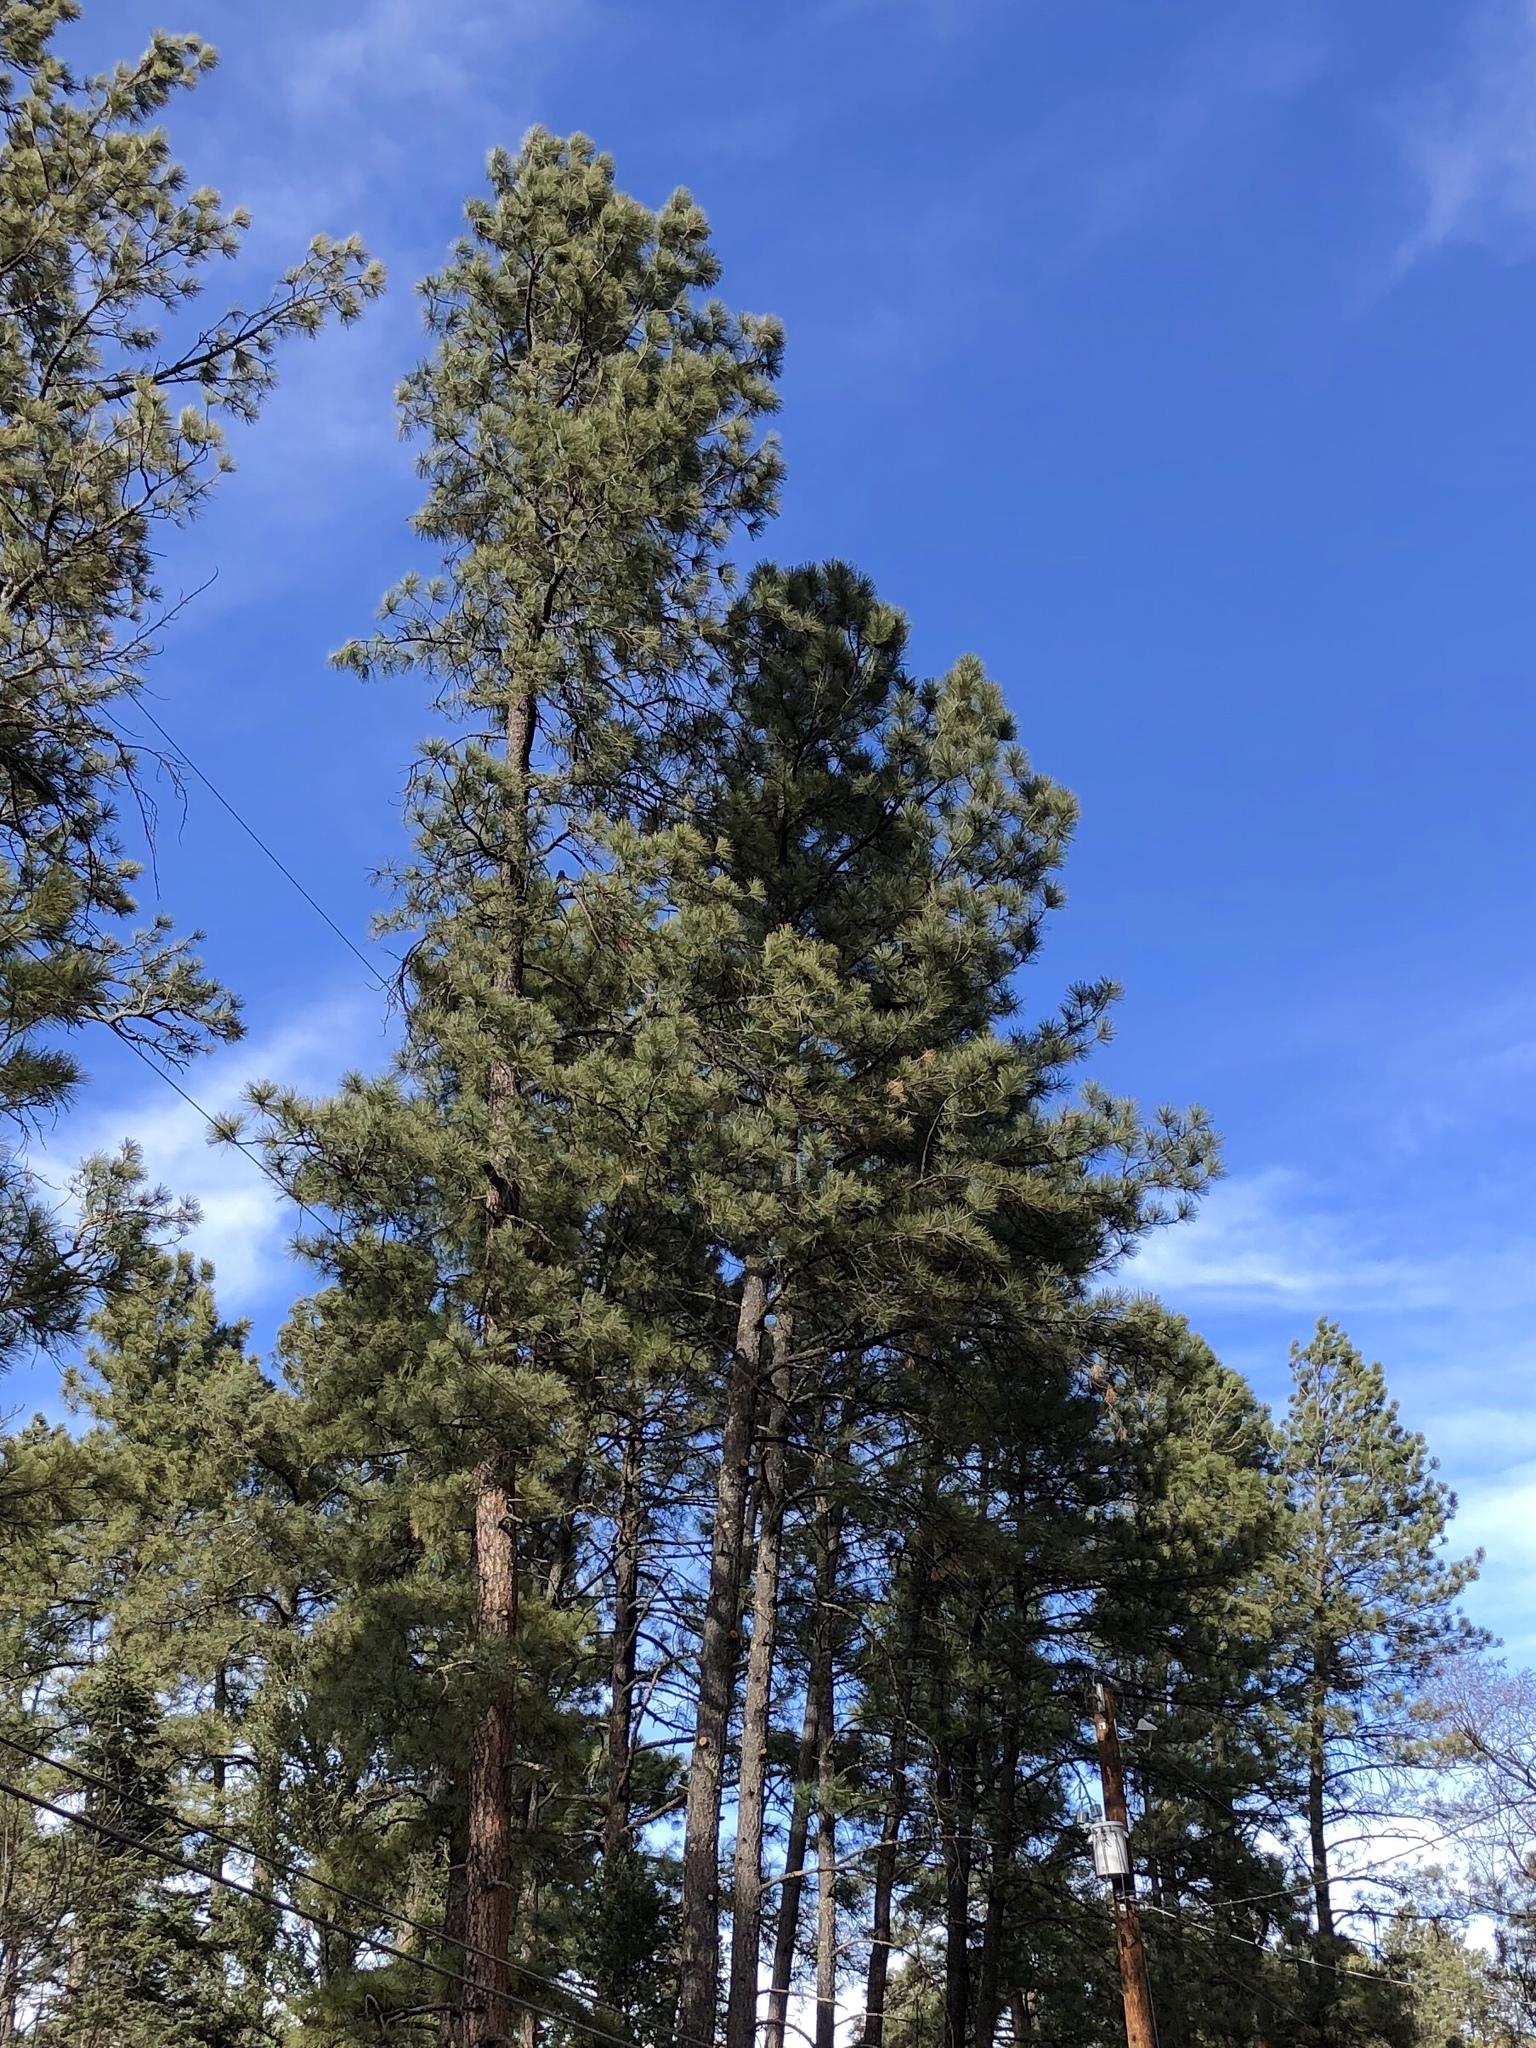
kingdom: Plantae
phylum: Tracheophyta
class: Pinopsida
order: Pinales
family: Pinaceae
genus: Pinus
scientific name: Pinus ponderosa
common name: Western yellow-pine
